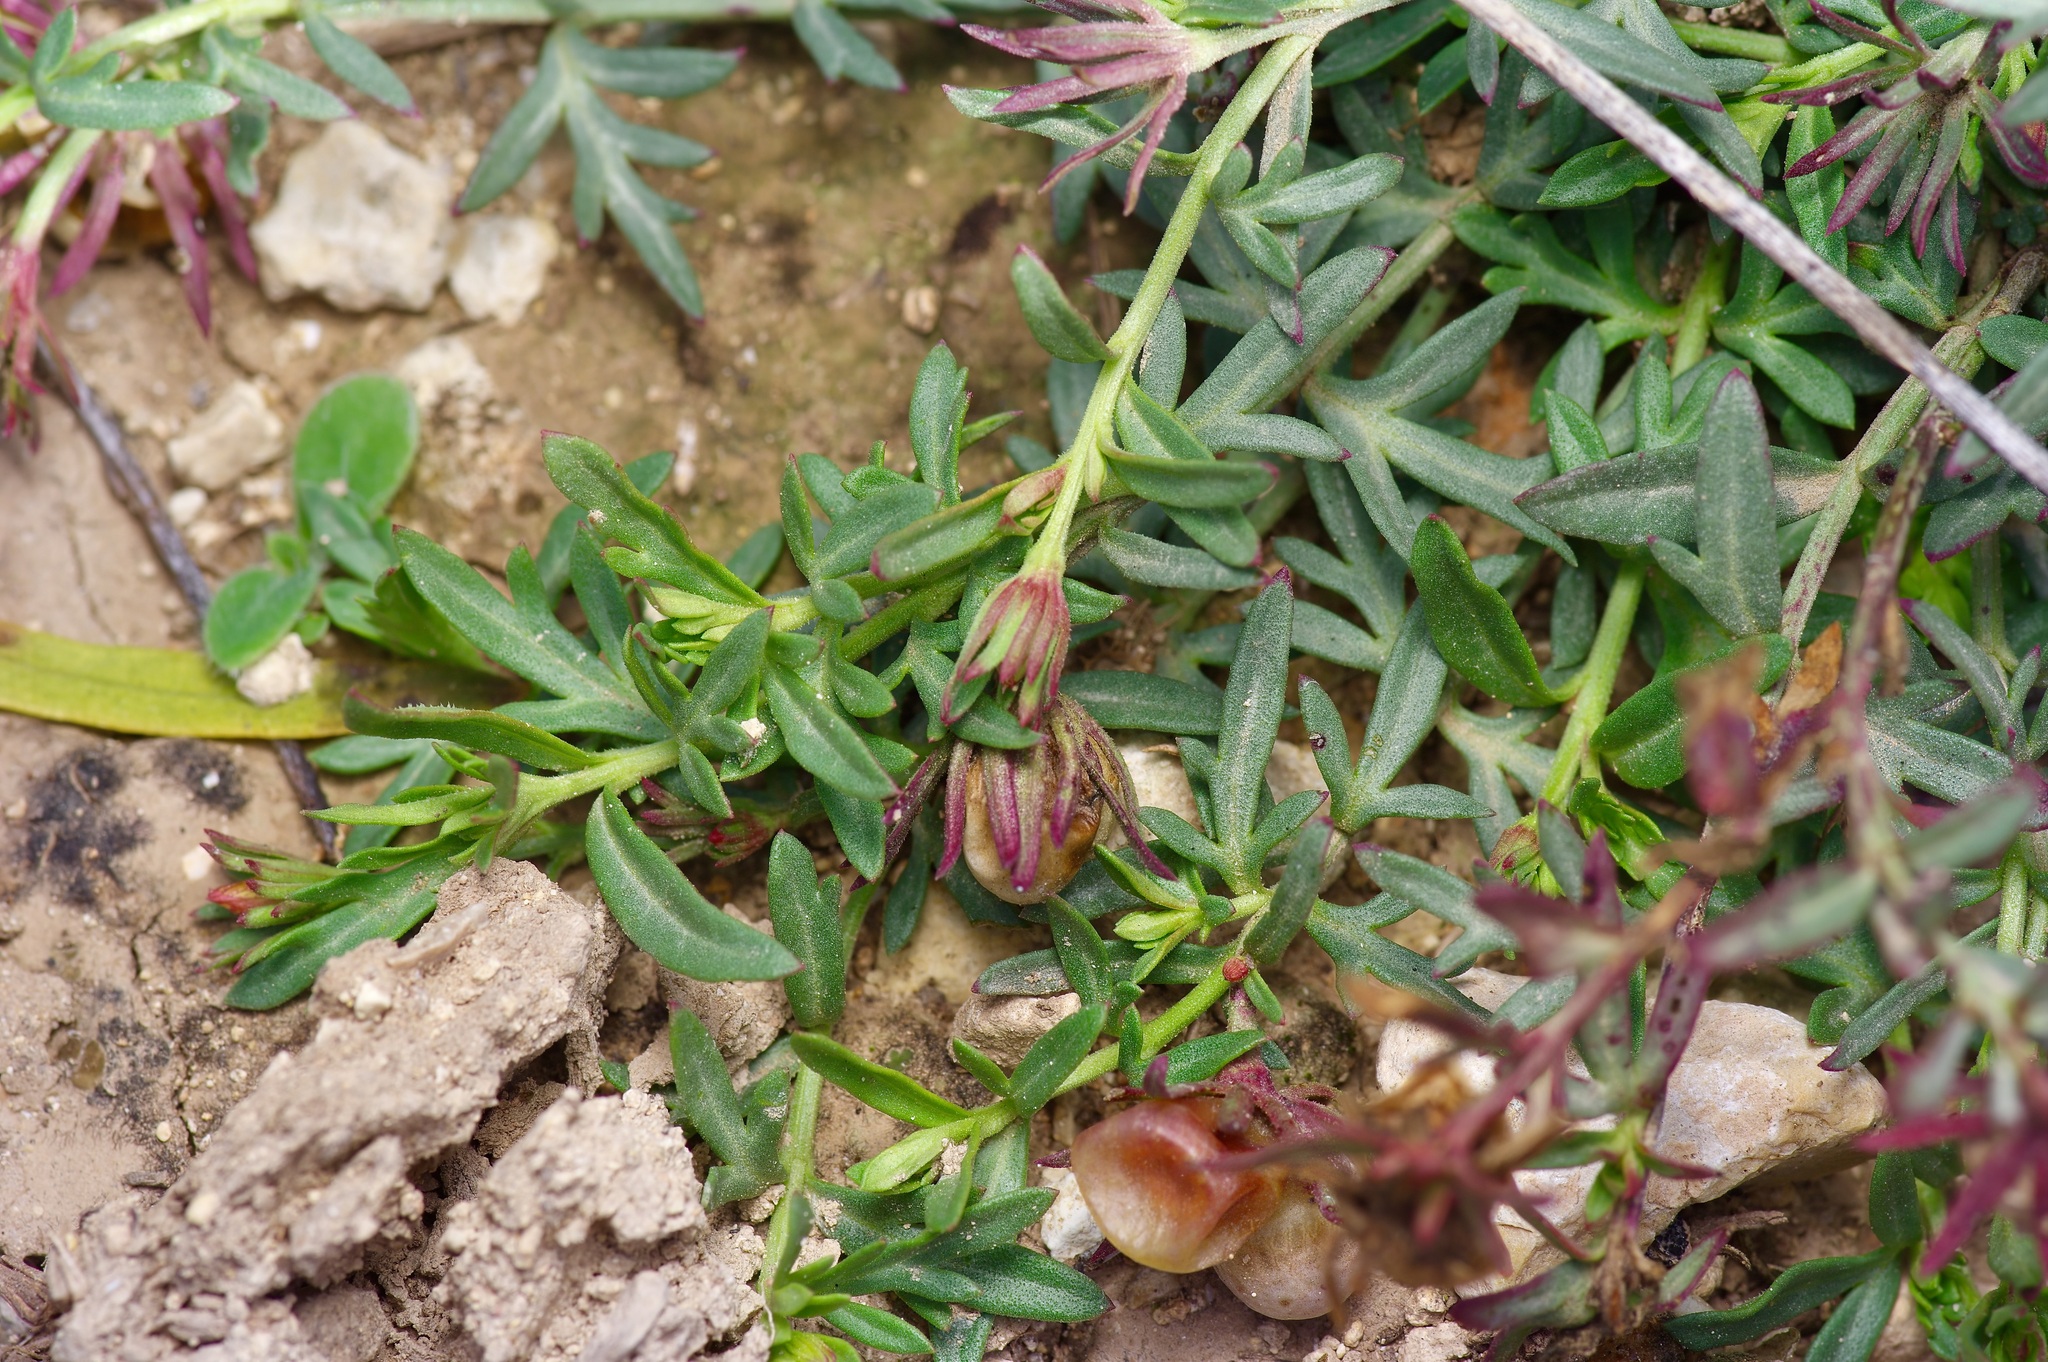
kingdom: Plantae
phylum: Tracheophyta
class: Magnoliopsida
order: Lamiales
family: Oleaceae
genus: Menodora
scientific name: Menodora heterophylla
